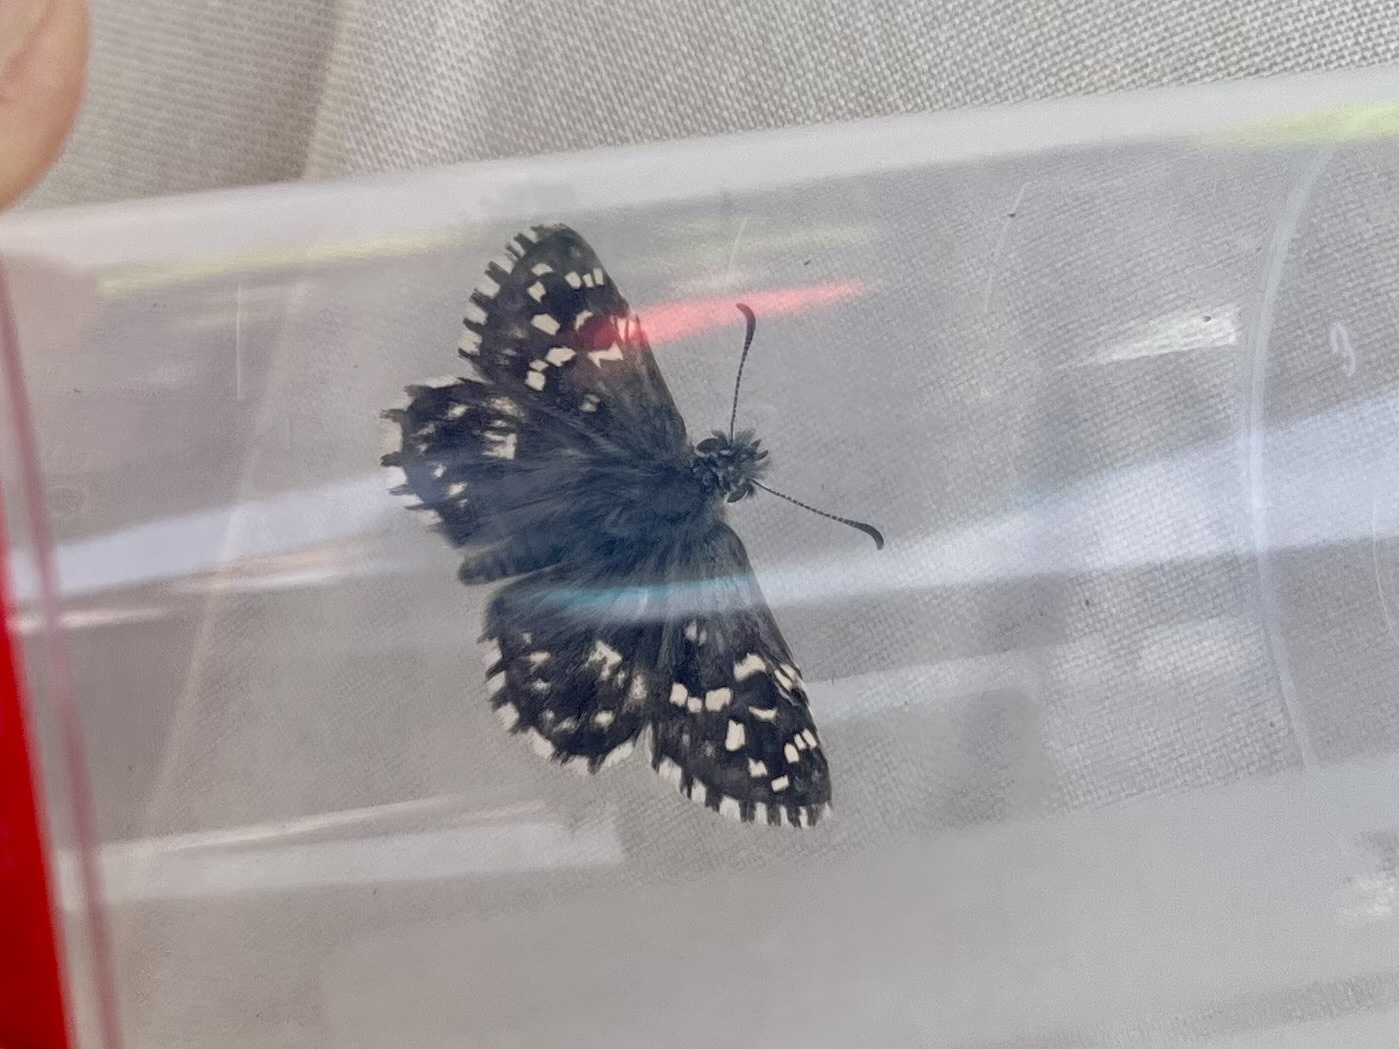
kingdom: Animalia
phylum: Arthropoda
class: Insecta
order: Lepidoptera
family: Hesperiidae
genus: Pyrgus
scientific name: Pyrgus malvae
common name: Grizzled skipper
